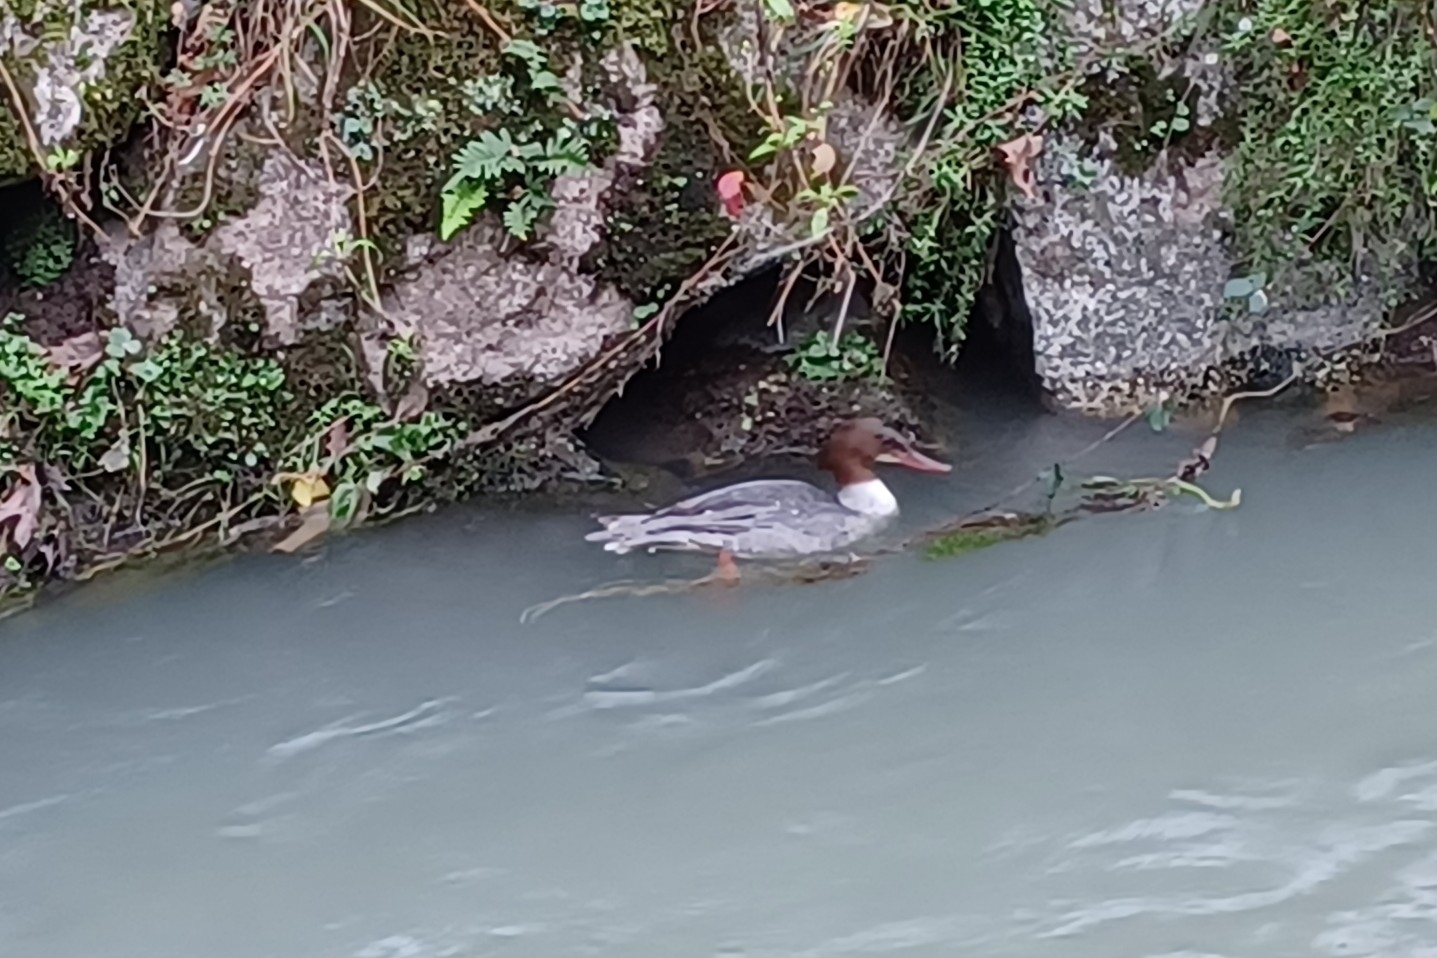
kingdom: Animalia
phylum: Chordata
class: Aves
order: Anseriformes
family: Anatidae
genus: Mergus
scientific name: Mergus merganser
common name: Common merganser
